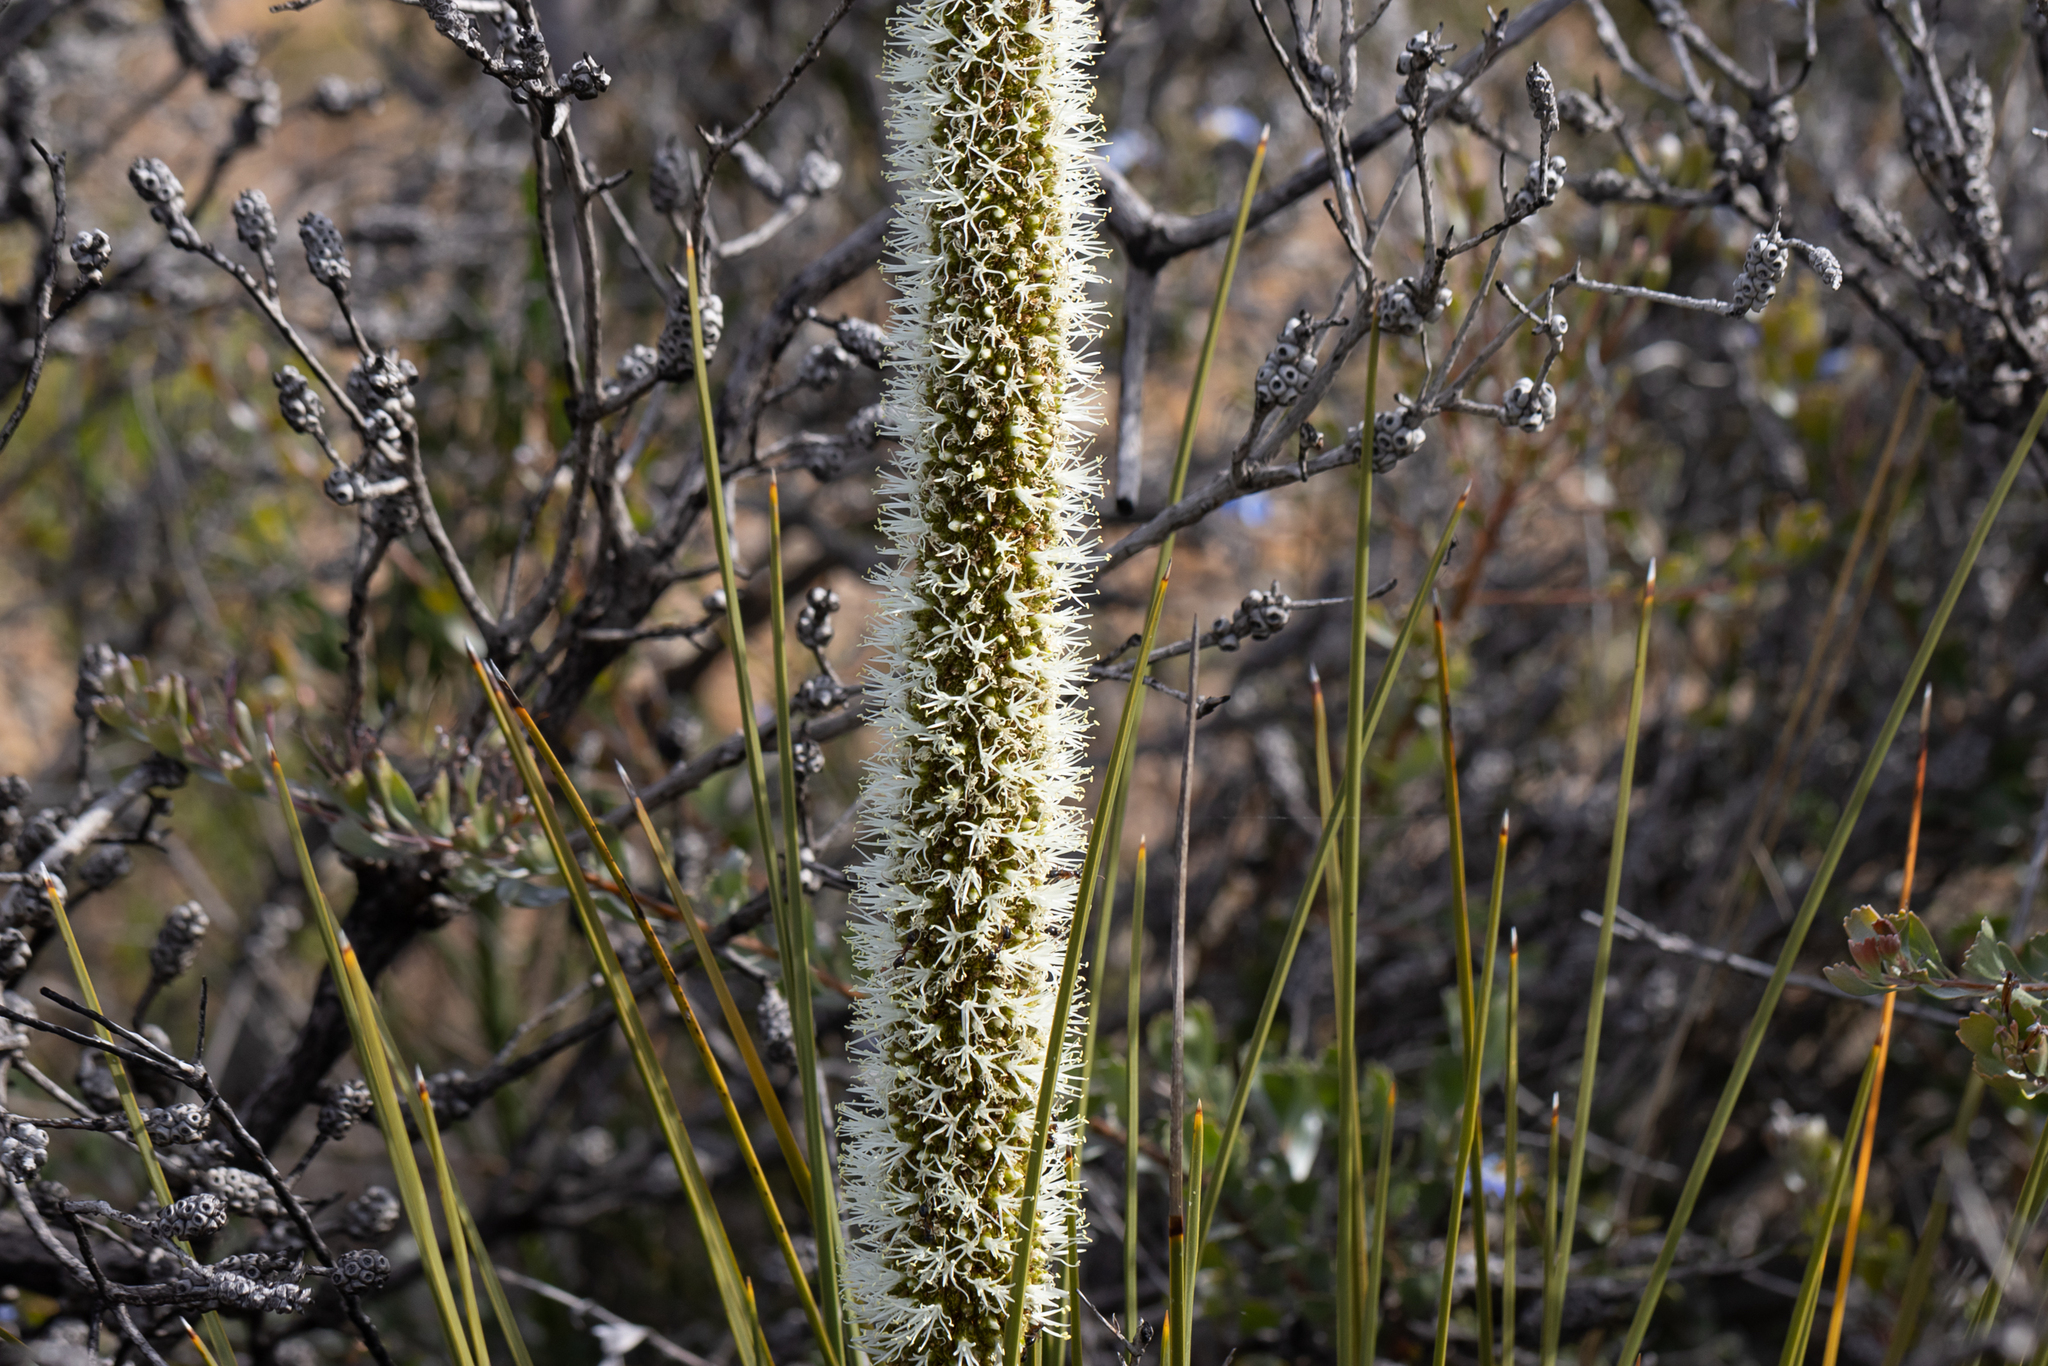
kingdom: Plantae
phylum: Tracheophyta
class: Liliopsida
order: Asparagales
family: Asphodelaceae
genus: Xanthorrhoea
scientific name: Xanthorrhoea platyphylla
